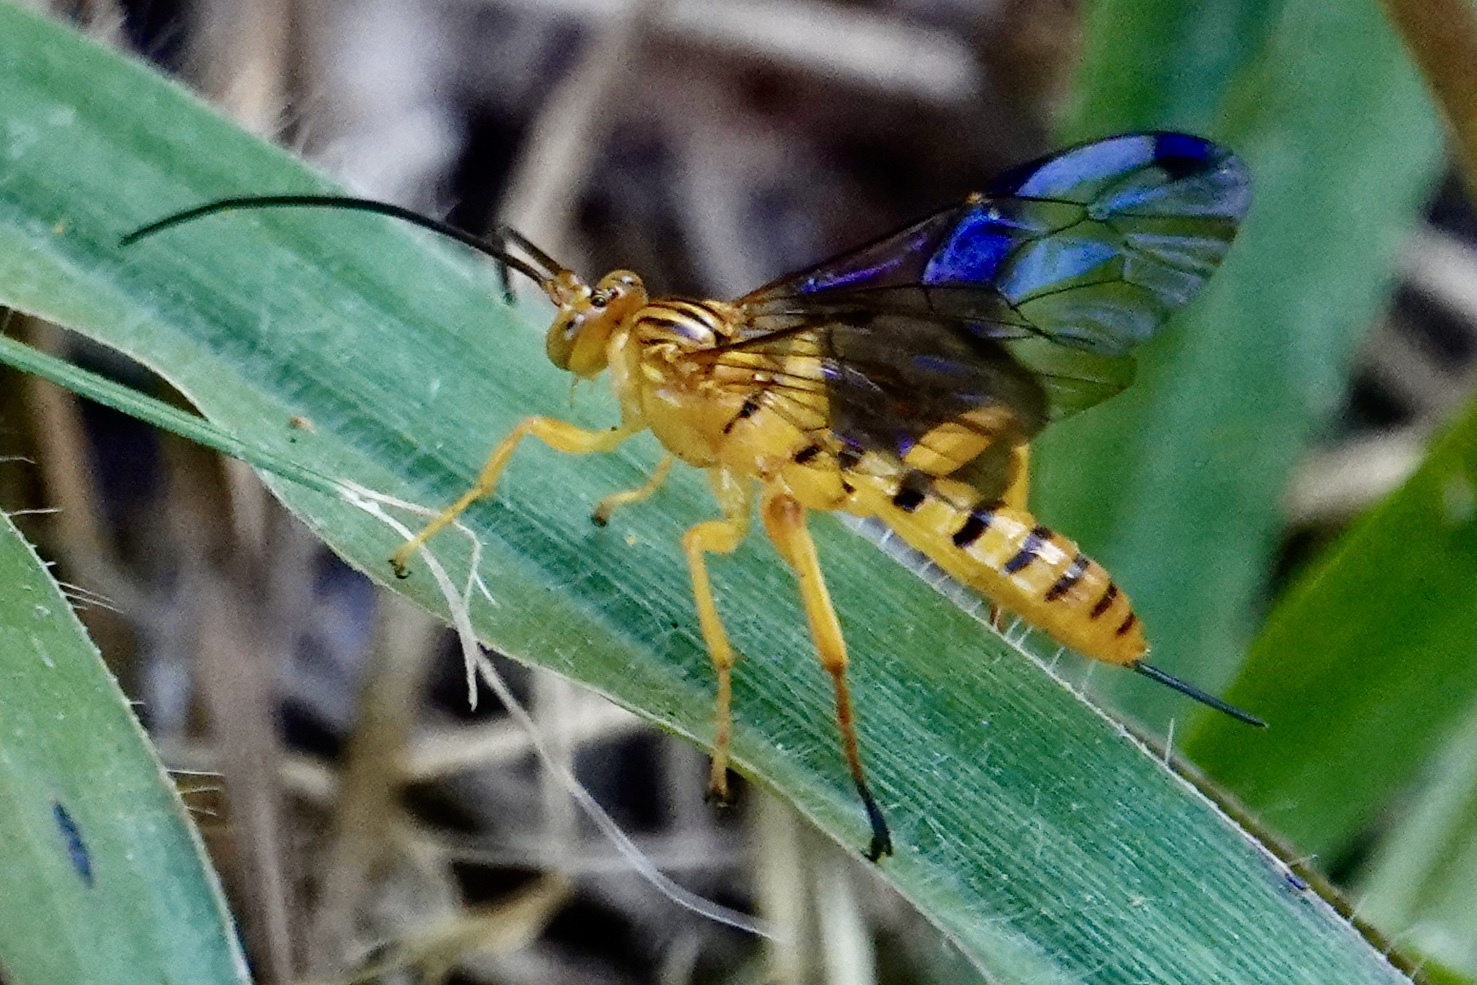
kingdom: Animalia
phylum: Arthropoda
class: Insecta
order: Hymenoptera
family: Ichneumonidae
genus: Neotheronia
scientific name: Neotheronia septemtrionalis
